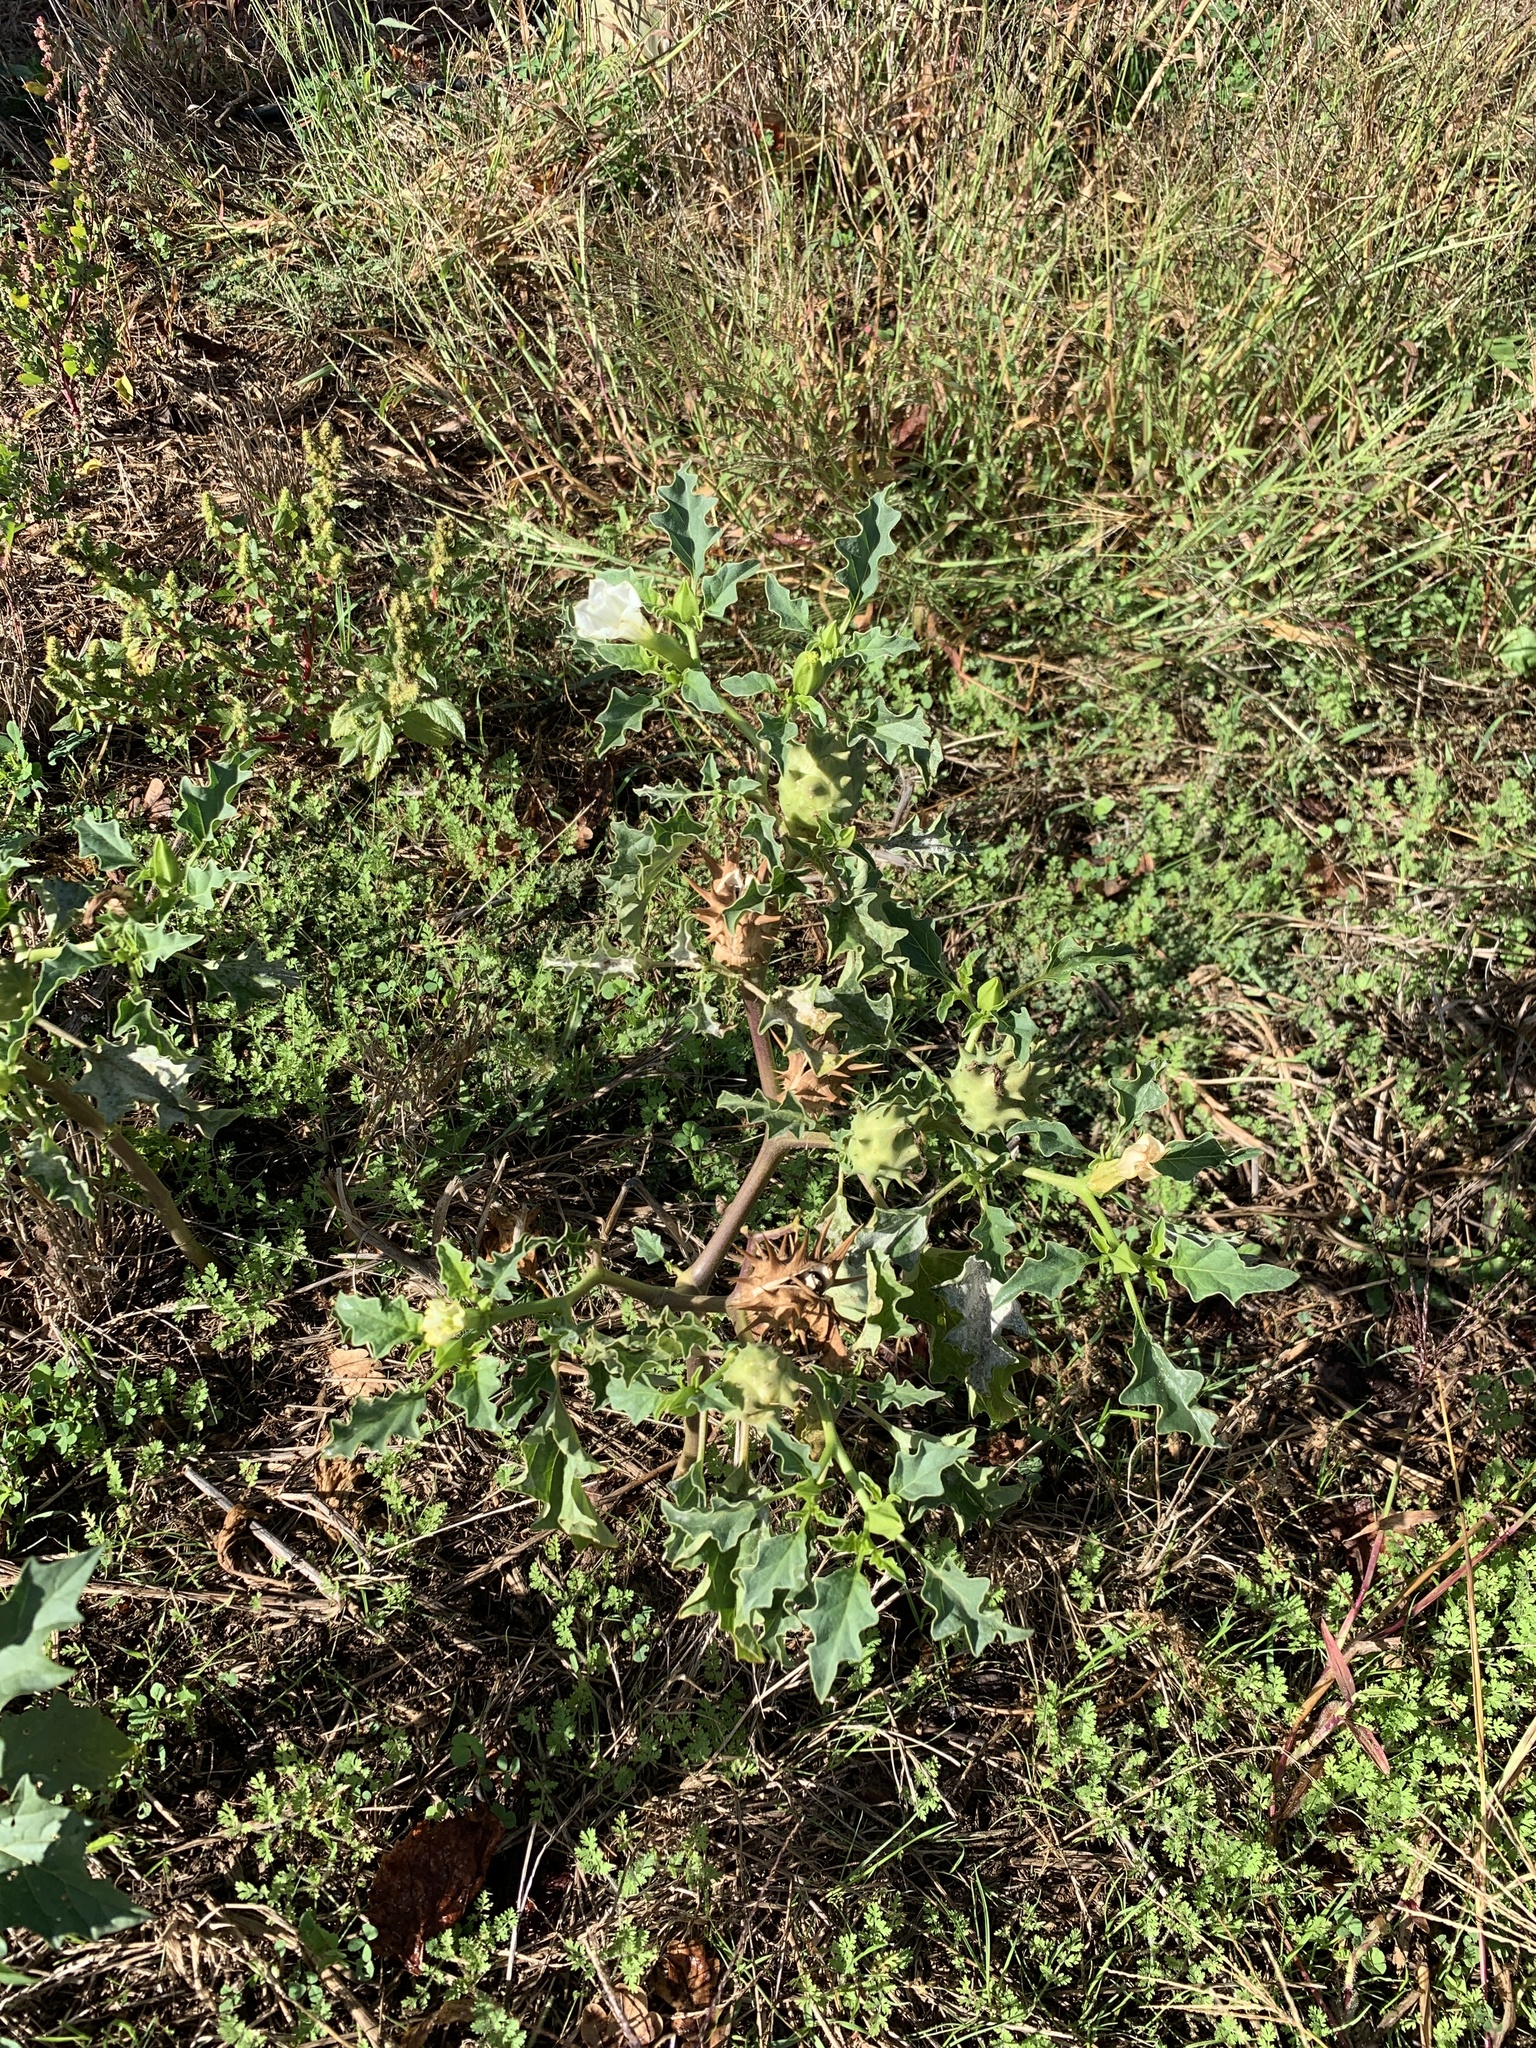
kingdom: Plantae
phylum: Tracheophyta
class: Magnoliopsida
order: Solanales
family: Solanaceae
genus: Datura
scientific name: Datura ferox
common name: Angel's-trumpets
